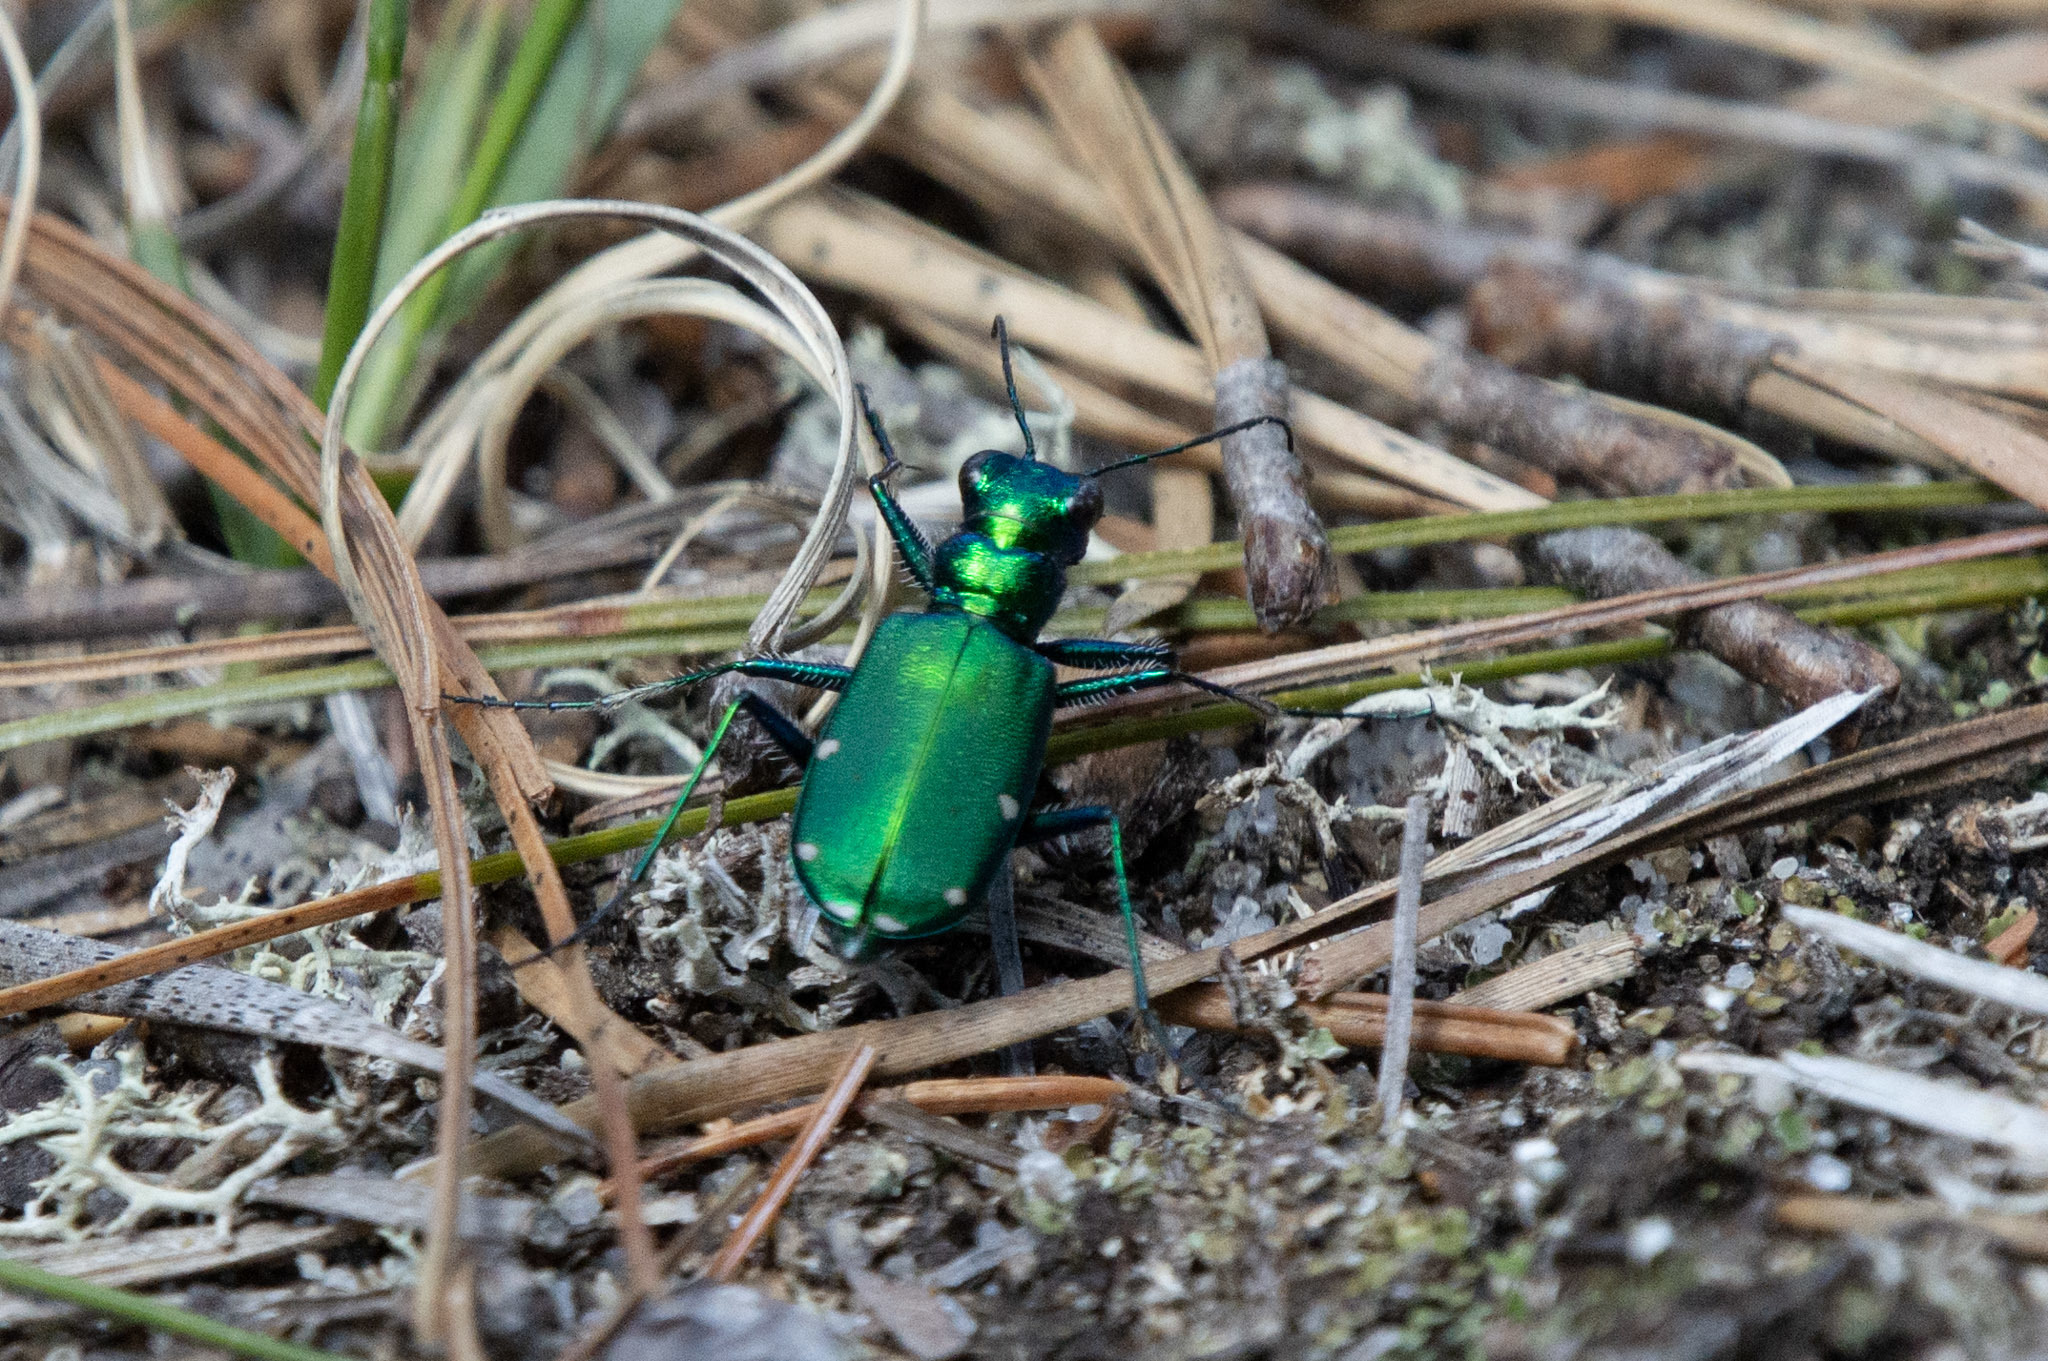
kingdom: Animalia
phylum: Arthropoda
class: Insecta
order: Coleoptera
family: Carabidae
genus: Cicindela
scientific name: Cicindela sexguttata
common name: Six-spotted tiger beetle
